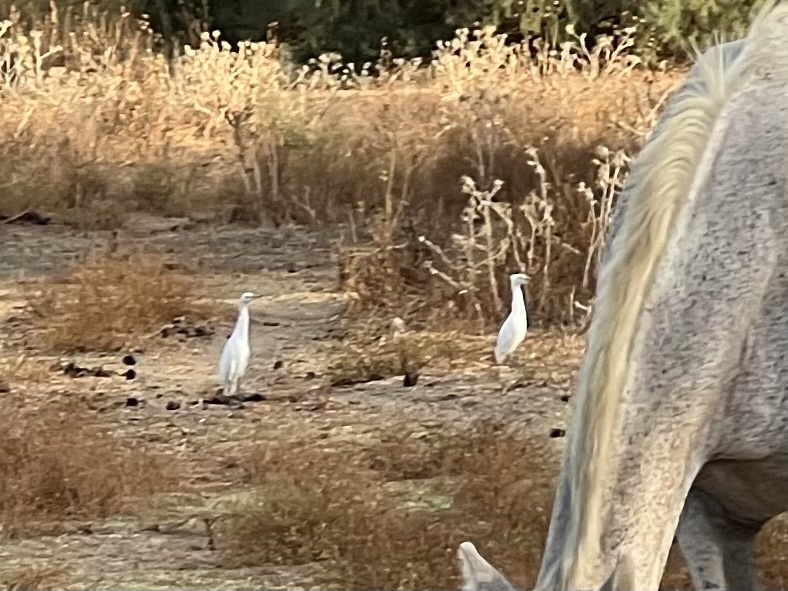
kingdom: Animalia
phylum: Chordata
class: Aves
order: Pelecaniformes
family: Ardeidae
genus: Bubulcus
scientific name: Bubulcus ibis
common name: Cattle egret
